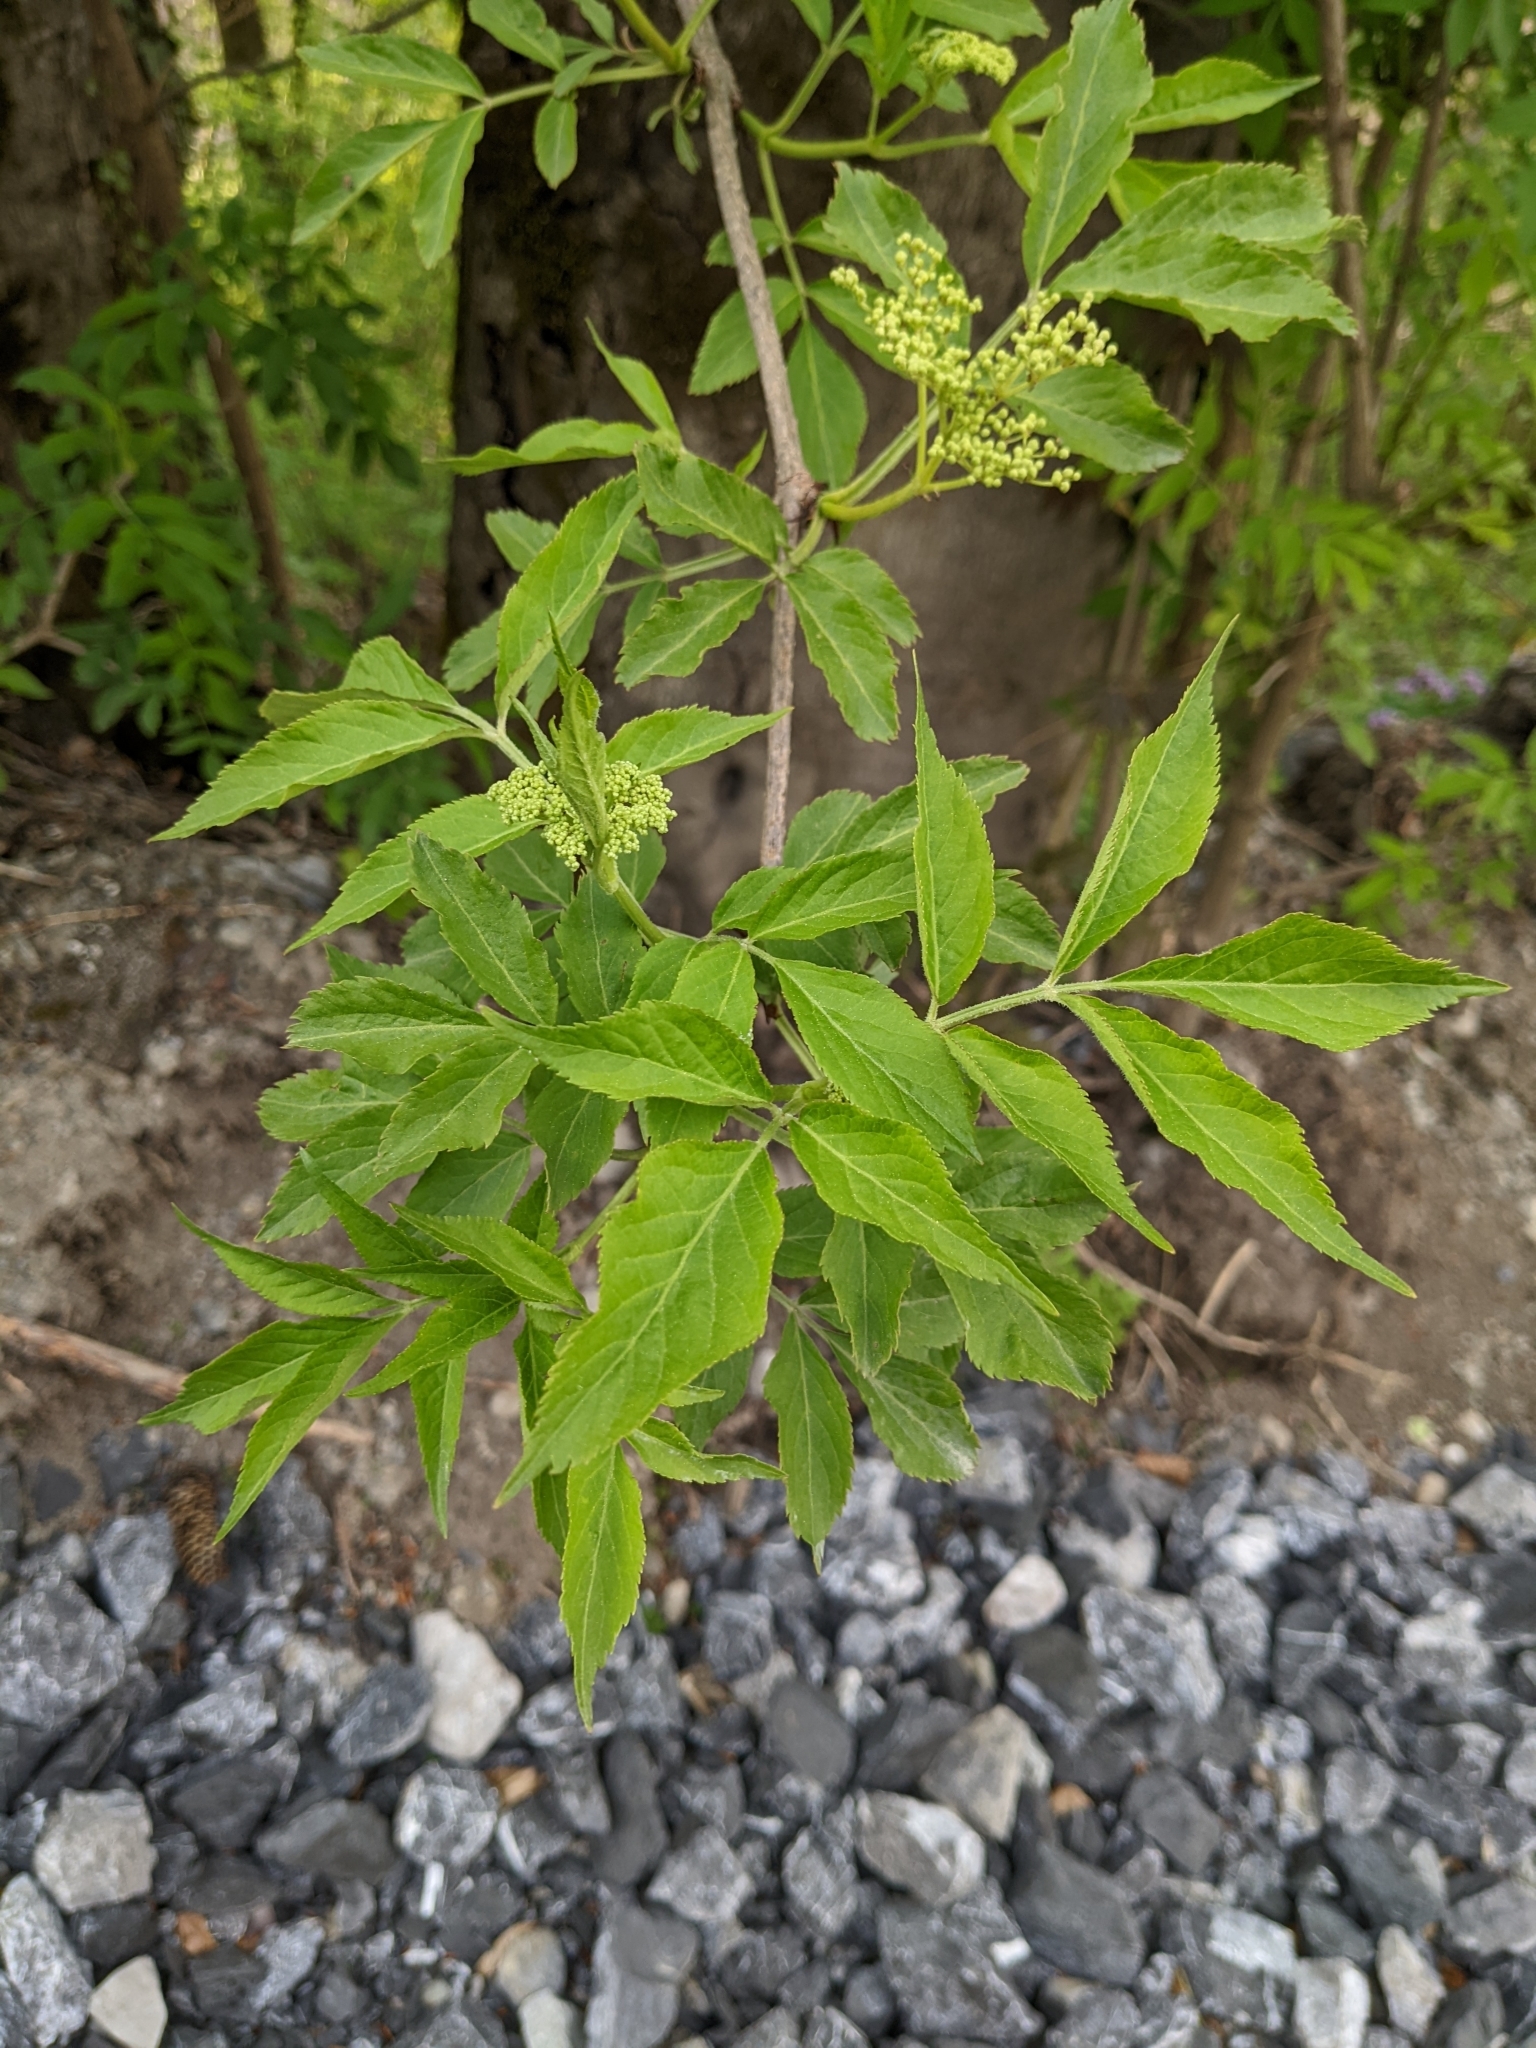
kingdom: Plantae
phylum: Tracheophyta
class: Magnoliopsida
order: Dipsacales
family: Viburnaceae
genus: Sambucus
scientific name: Sambucus nigra
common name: Elder
